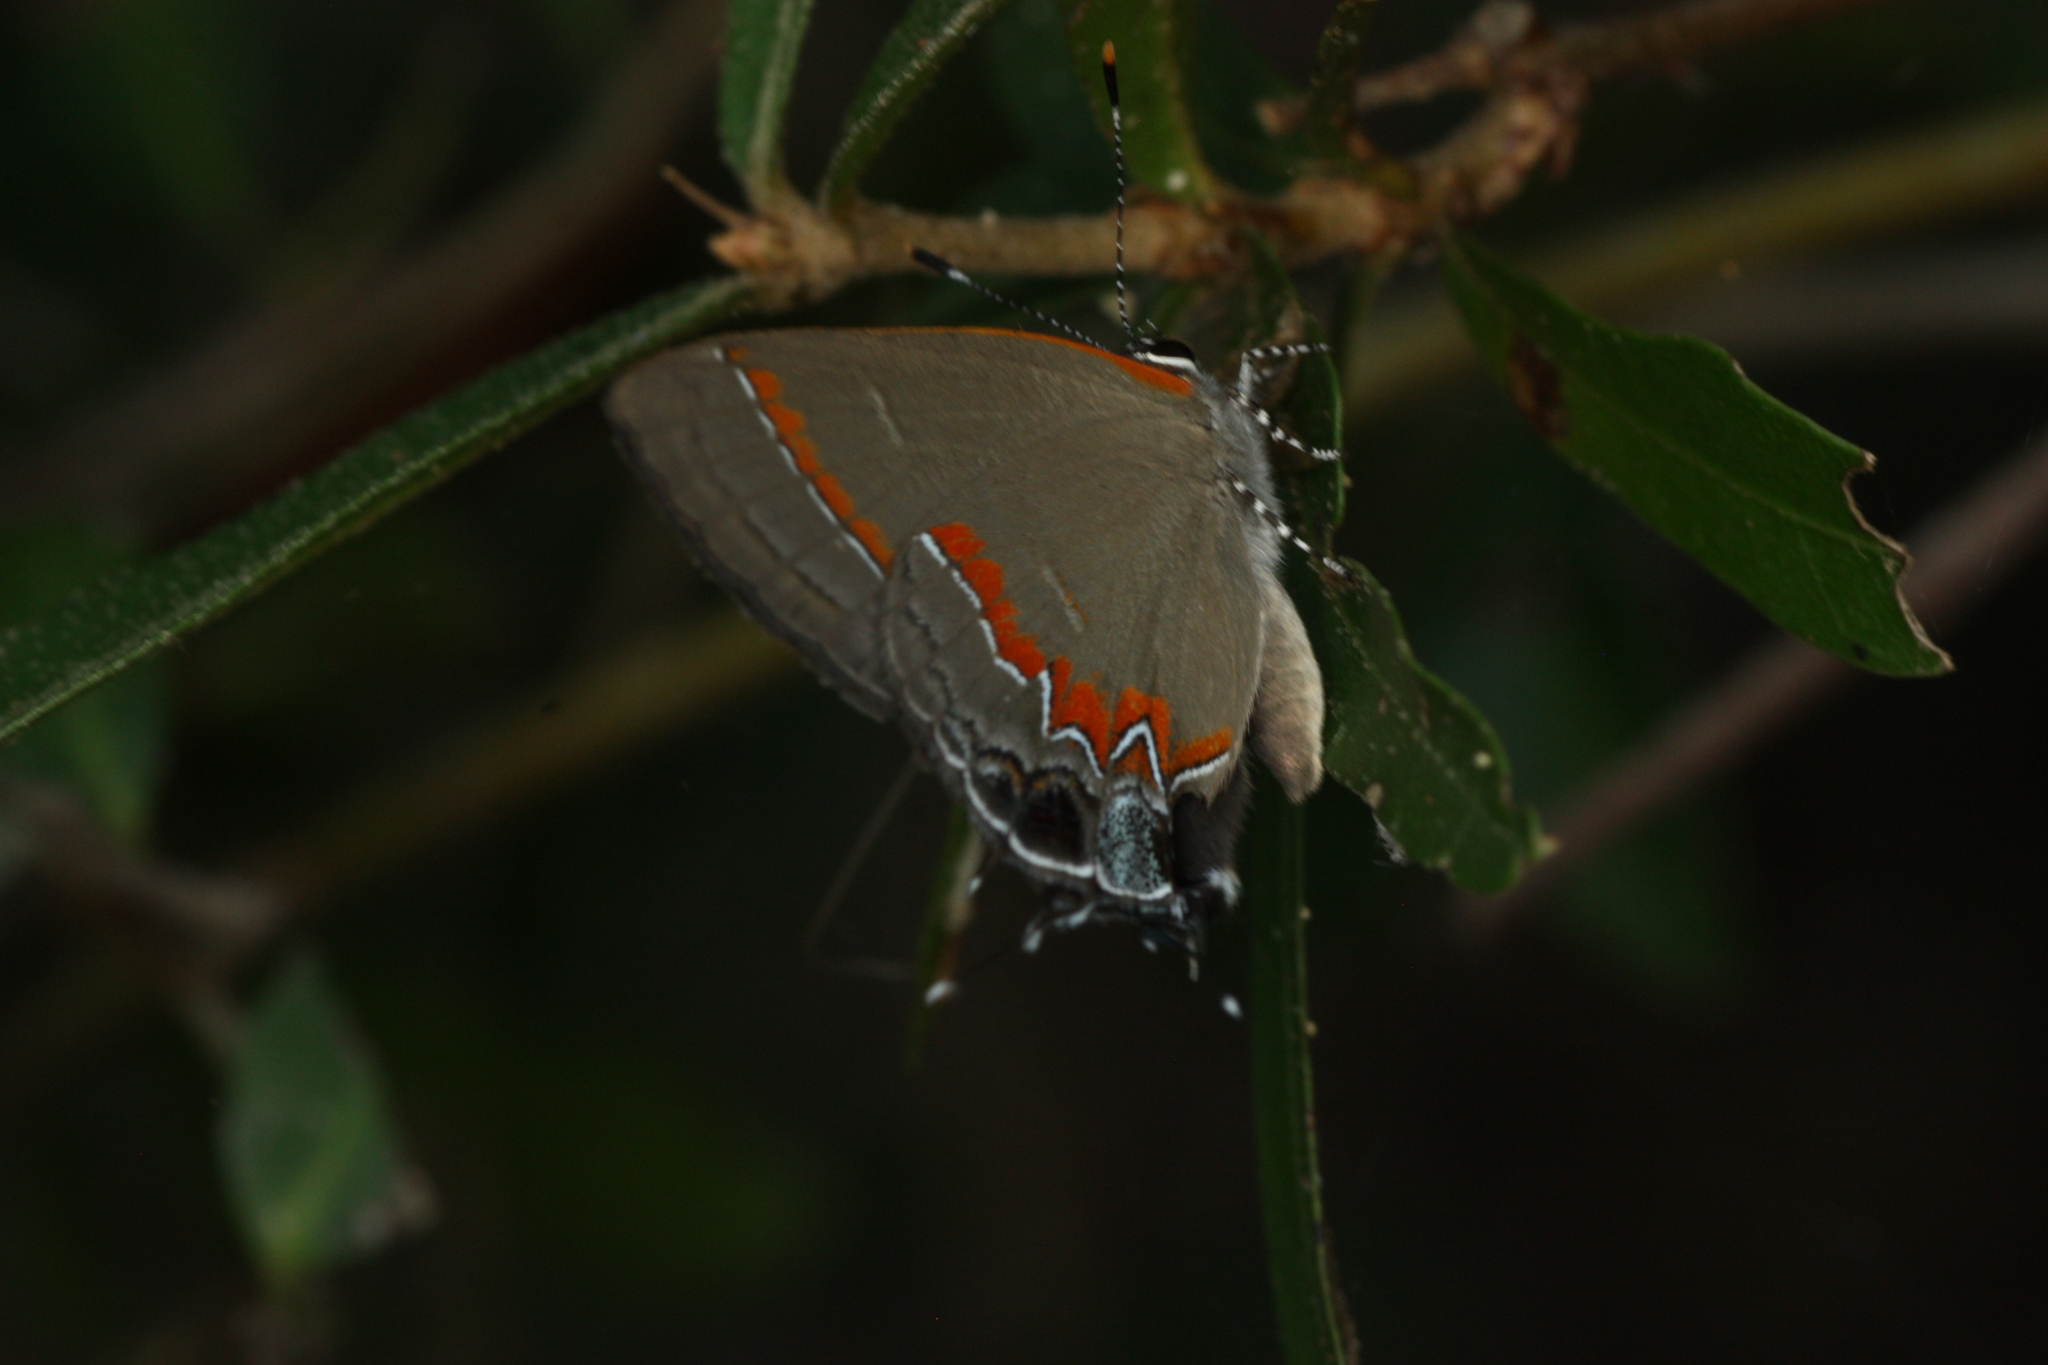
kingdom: Animalia
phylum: Arthropoda
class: Insecta
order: Lepidoptera
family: Lycaenidae
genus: Calycopis
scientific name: Calycopis cecrops
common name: Red-banded hairstreak
